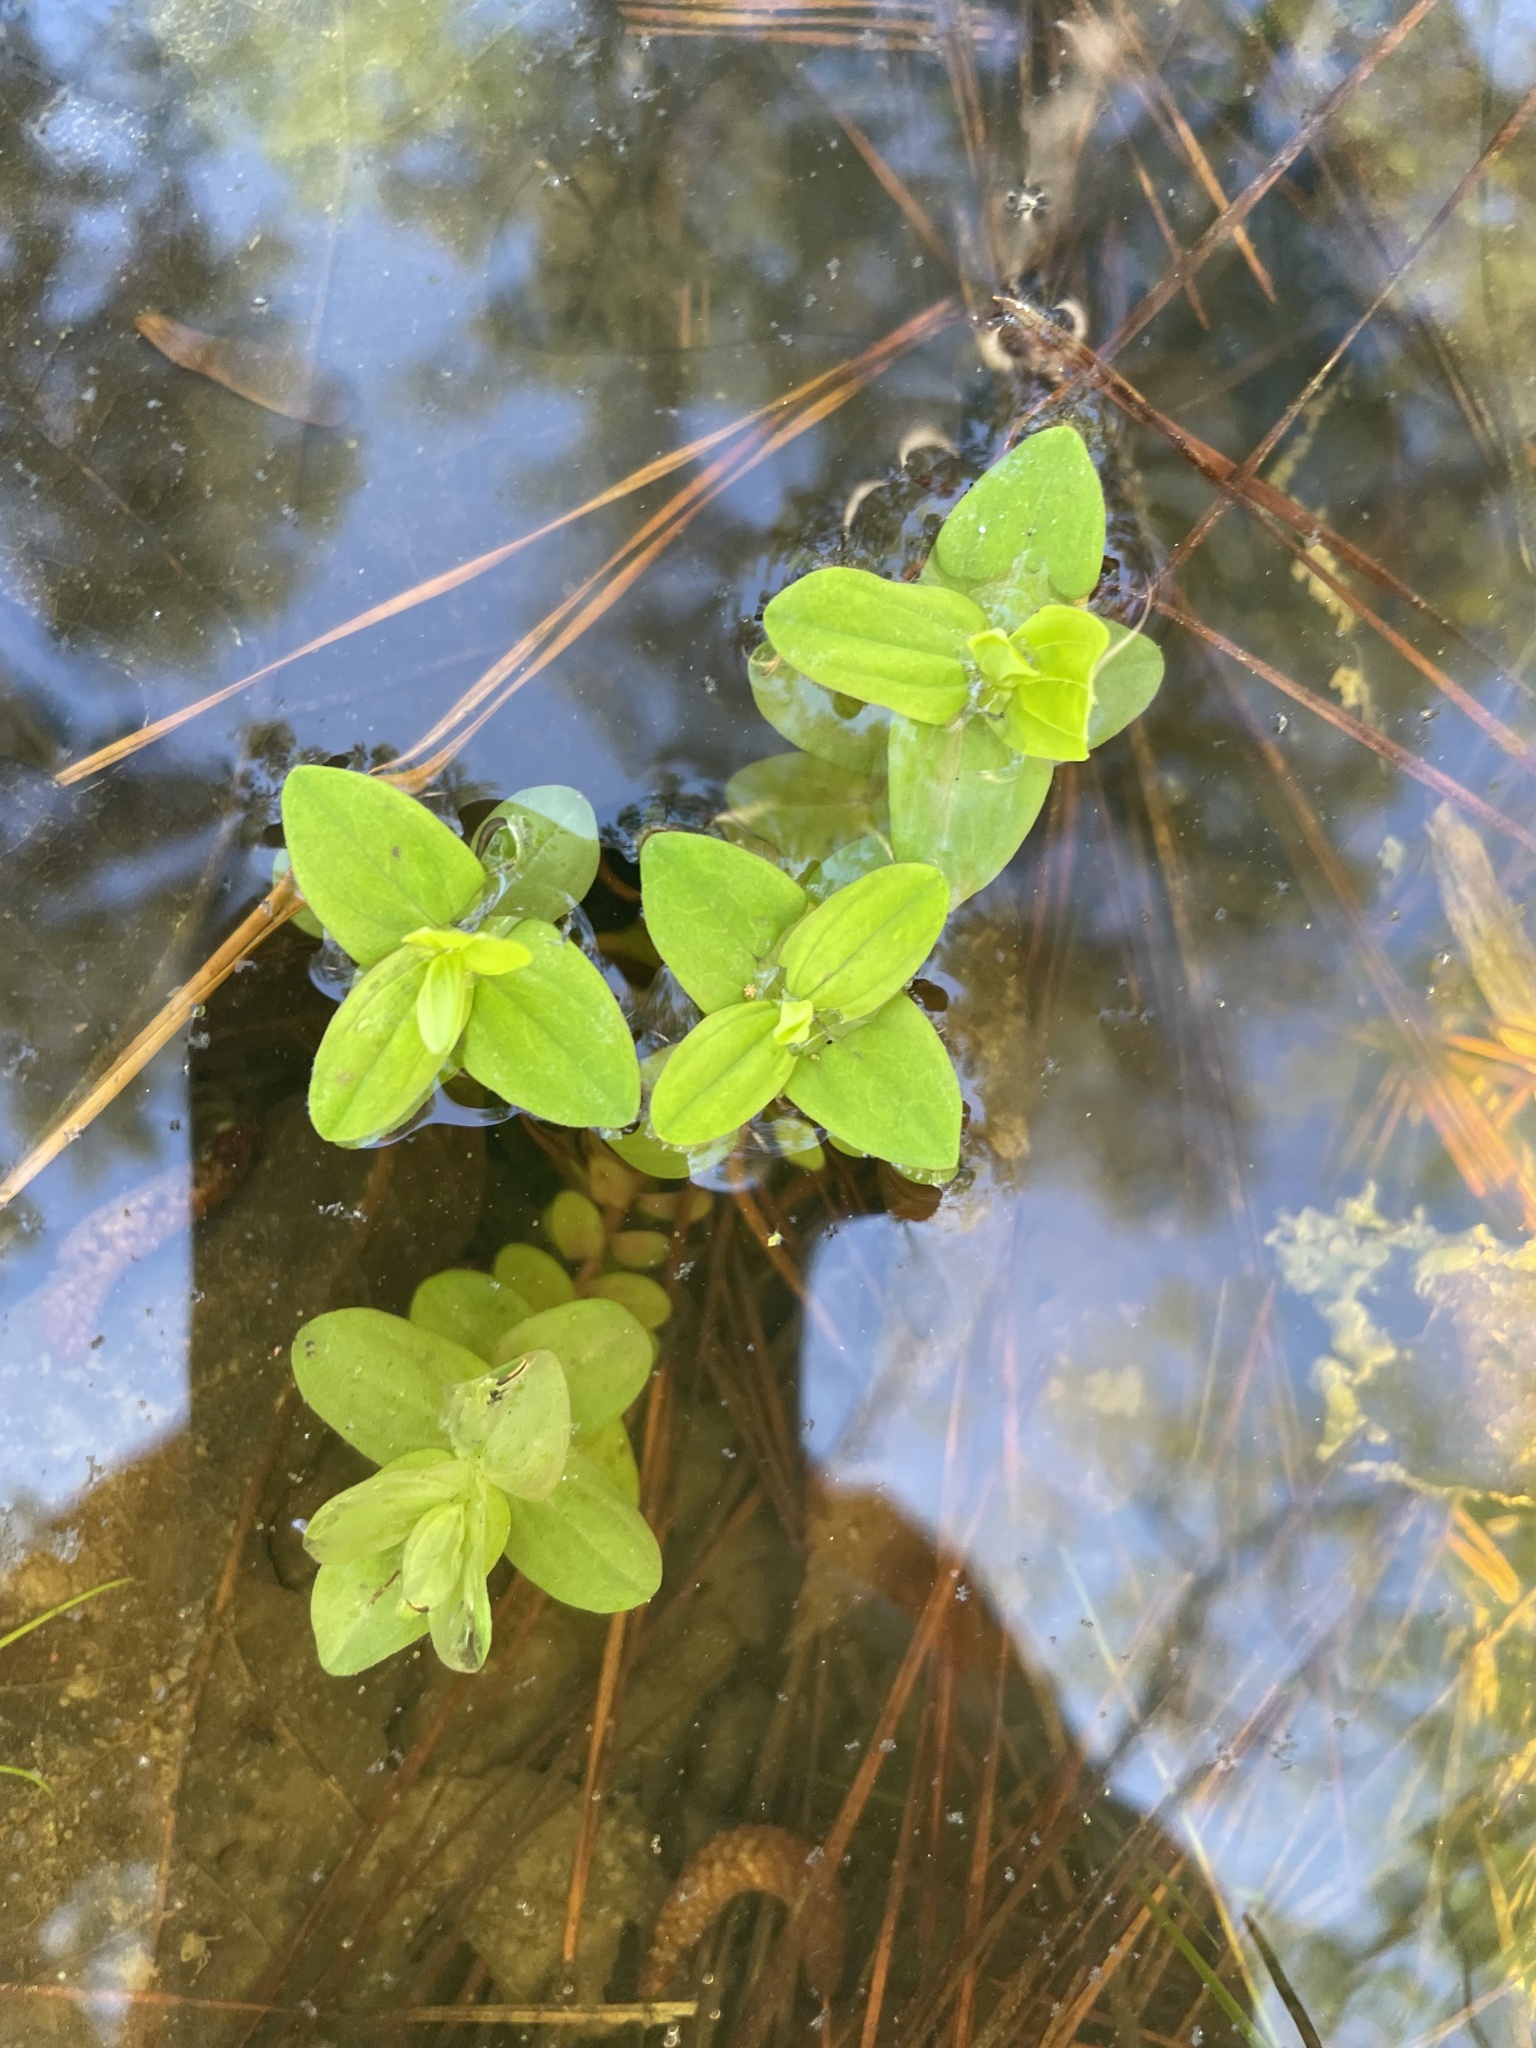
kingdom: Plantae
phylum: Tracheophyta
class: Magnoliopsida
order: Malpighiales
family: Hypericaceae
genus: Hypericum
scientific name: Hypericum mutilum
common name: Dwarf st. john's-wort
